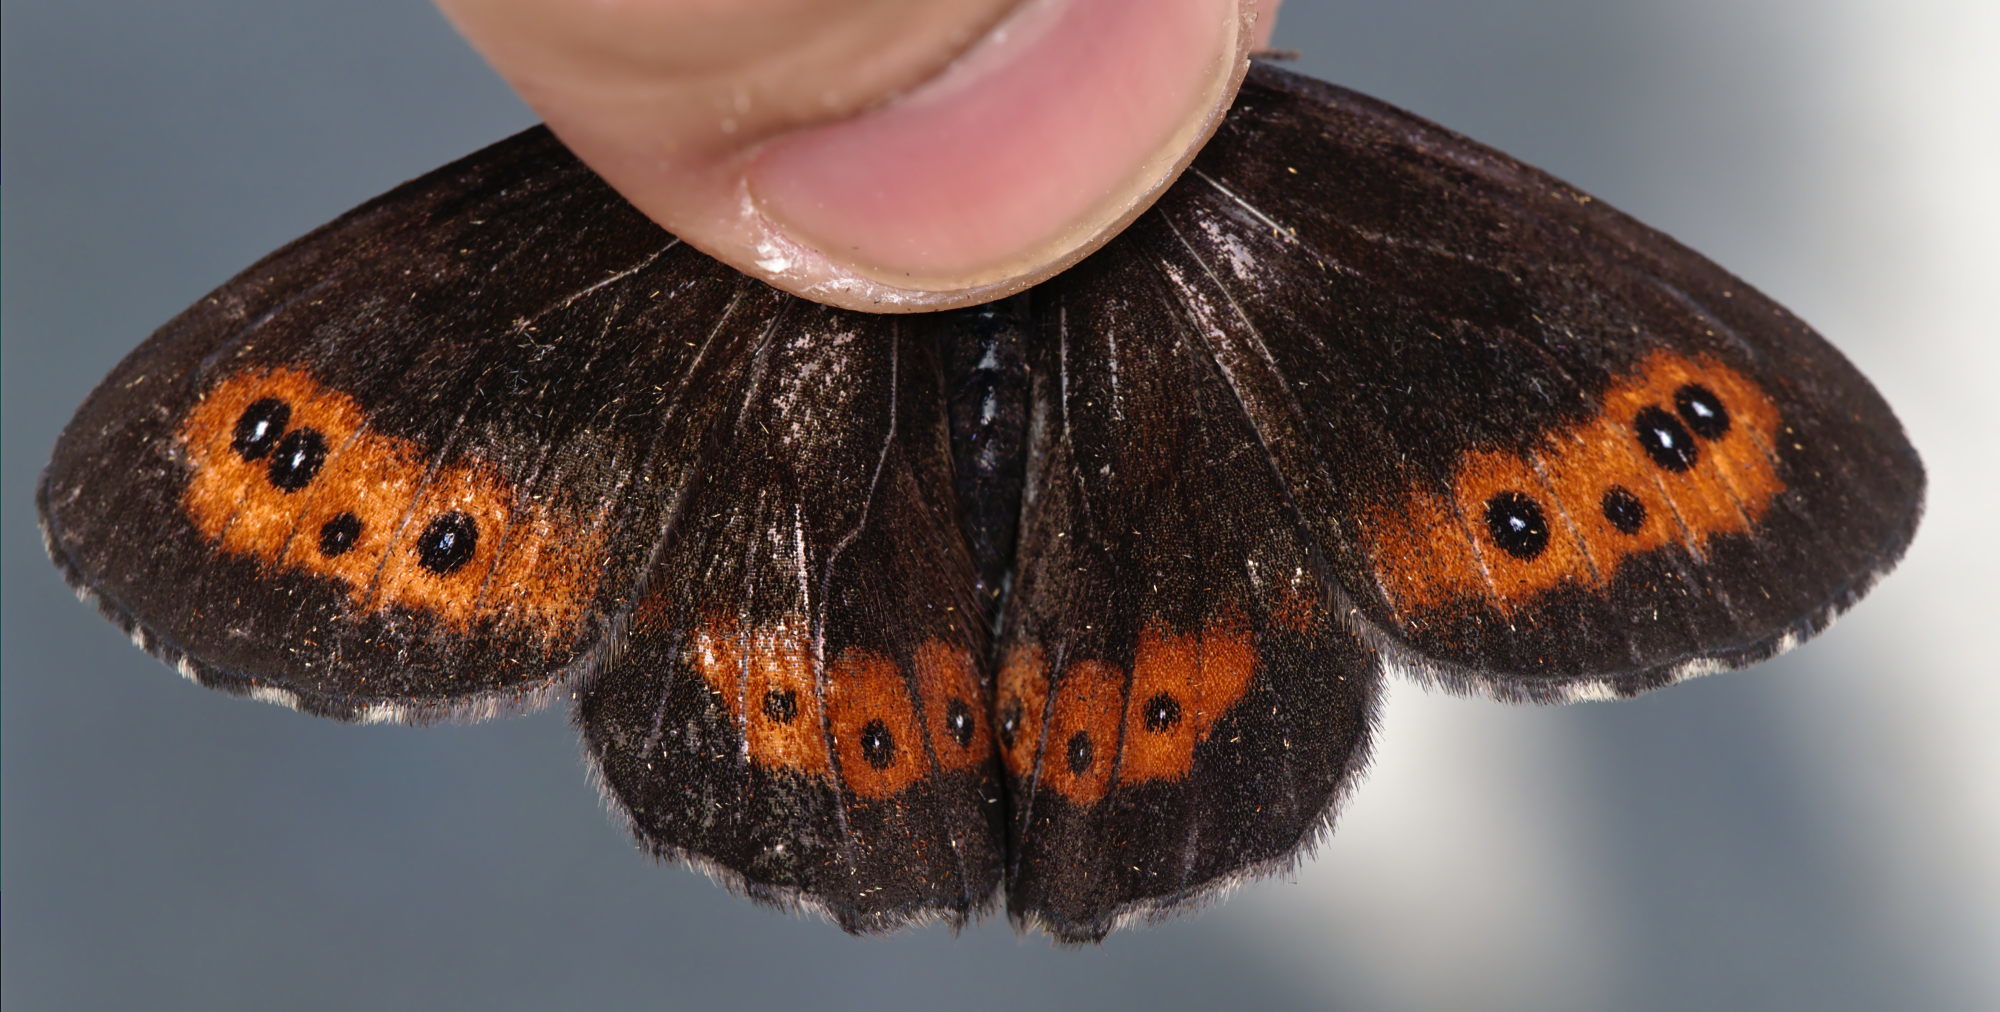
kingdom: Animalia
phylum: Arthropoda
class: Insecta
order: Lepidoptera
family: Nymphalidae
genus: Erebia
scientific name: Erebia ligea
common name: Arran brown
